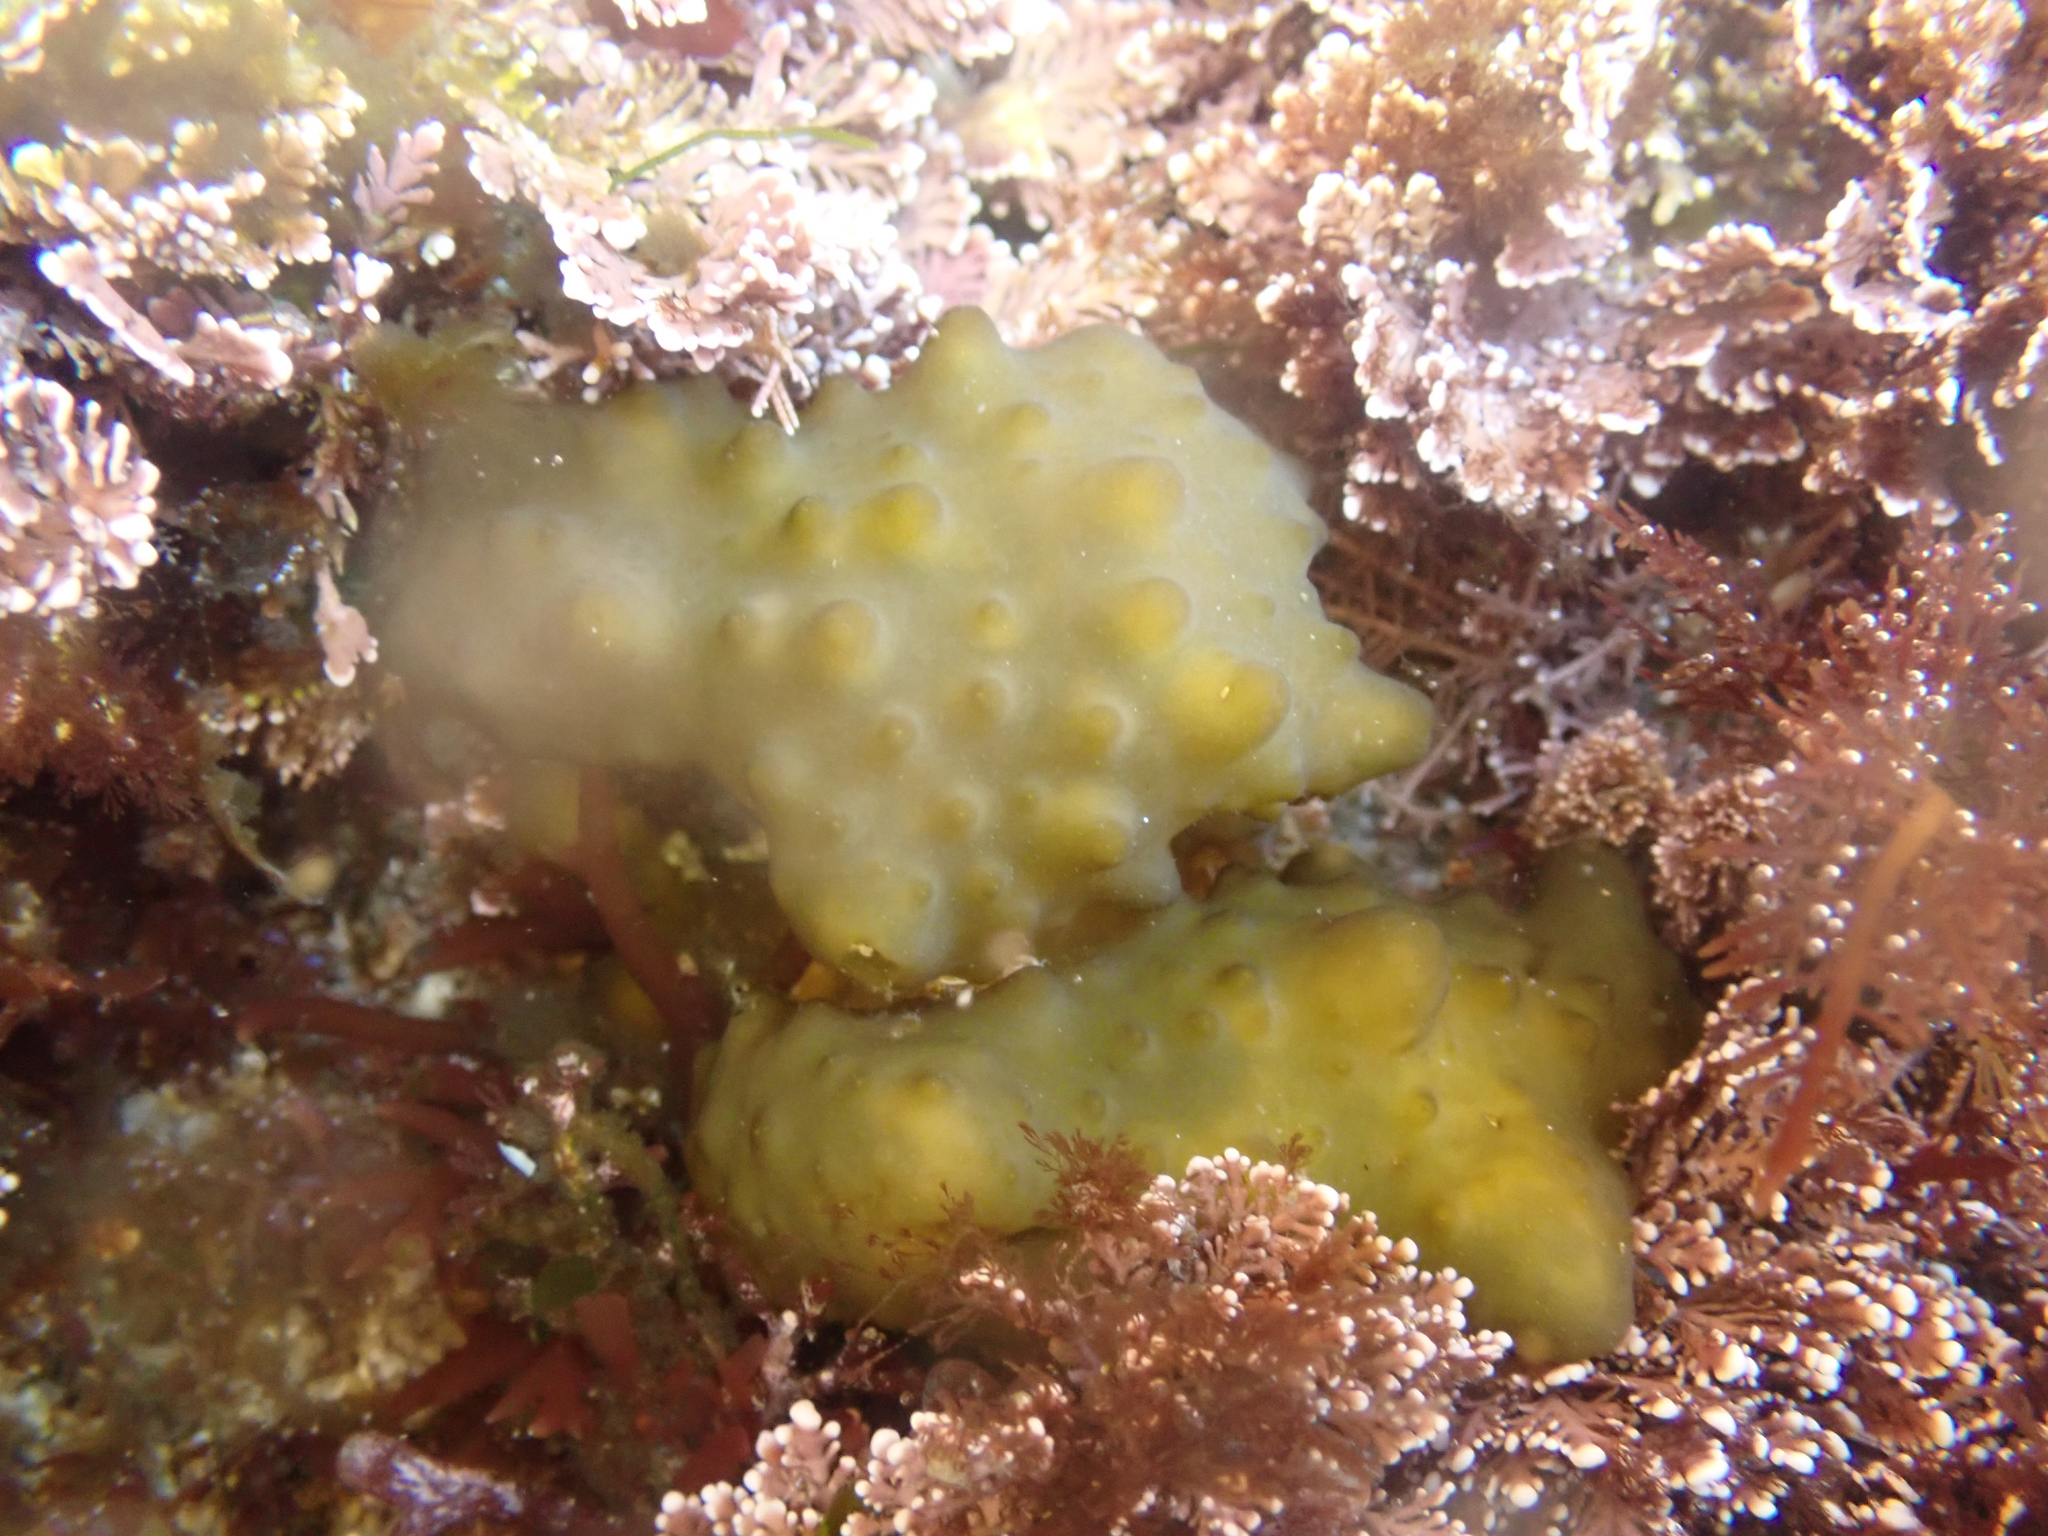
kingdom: Chromista
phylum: Ochrophyta
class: Phaeophyceae
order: Scytosiphonales
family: Scytosiphonaceae
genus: Colpomenia
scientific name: Colpomenia
